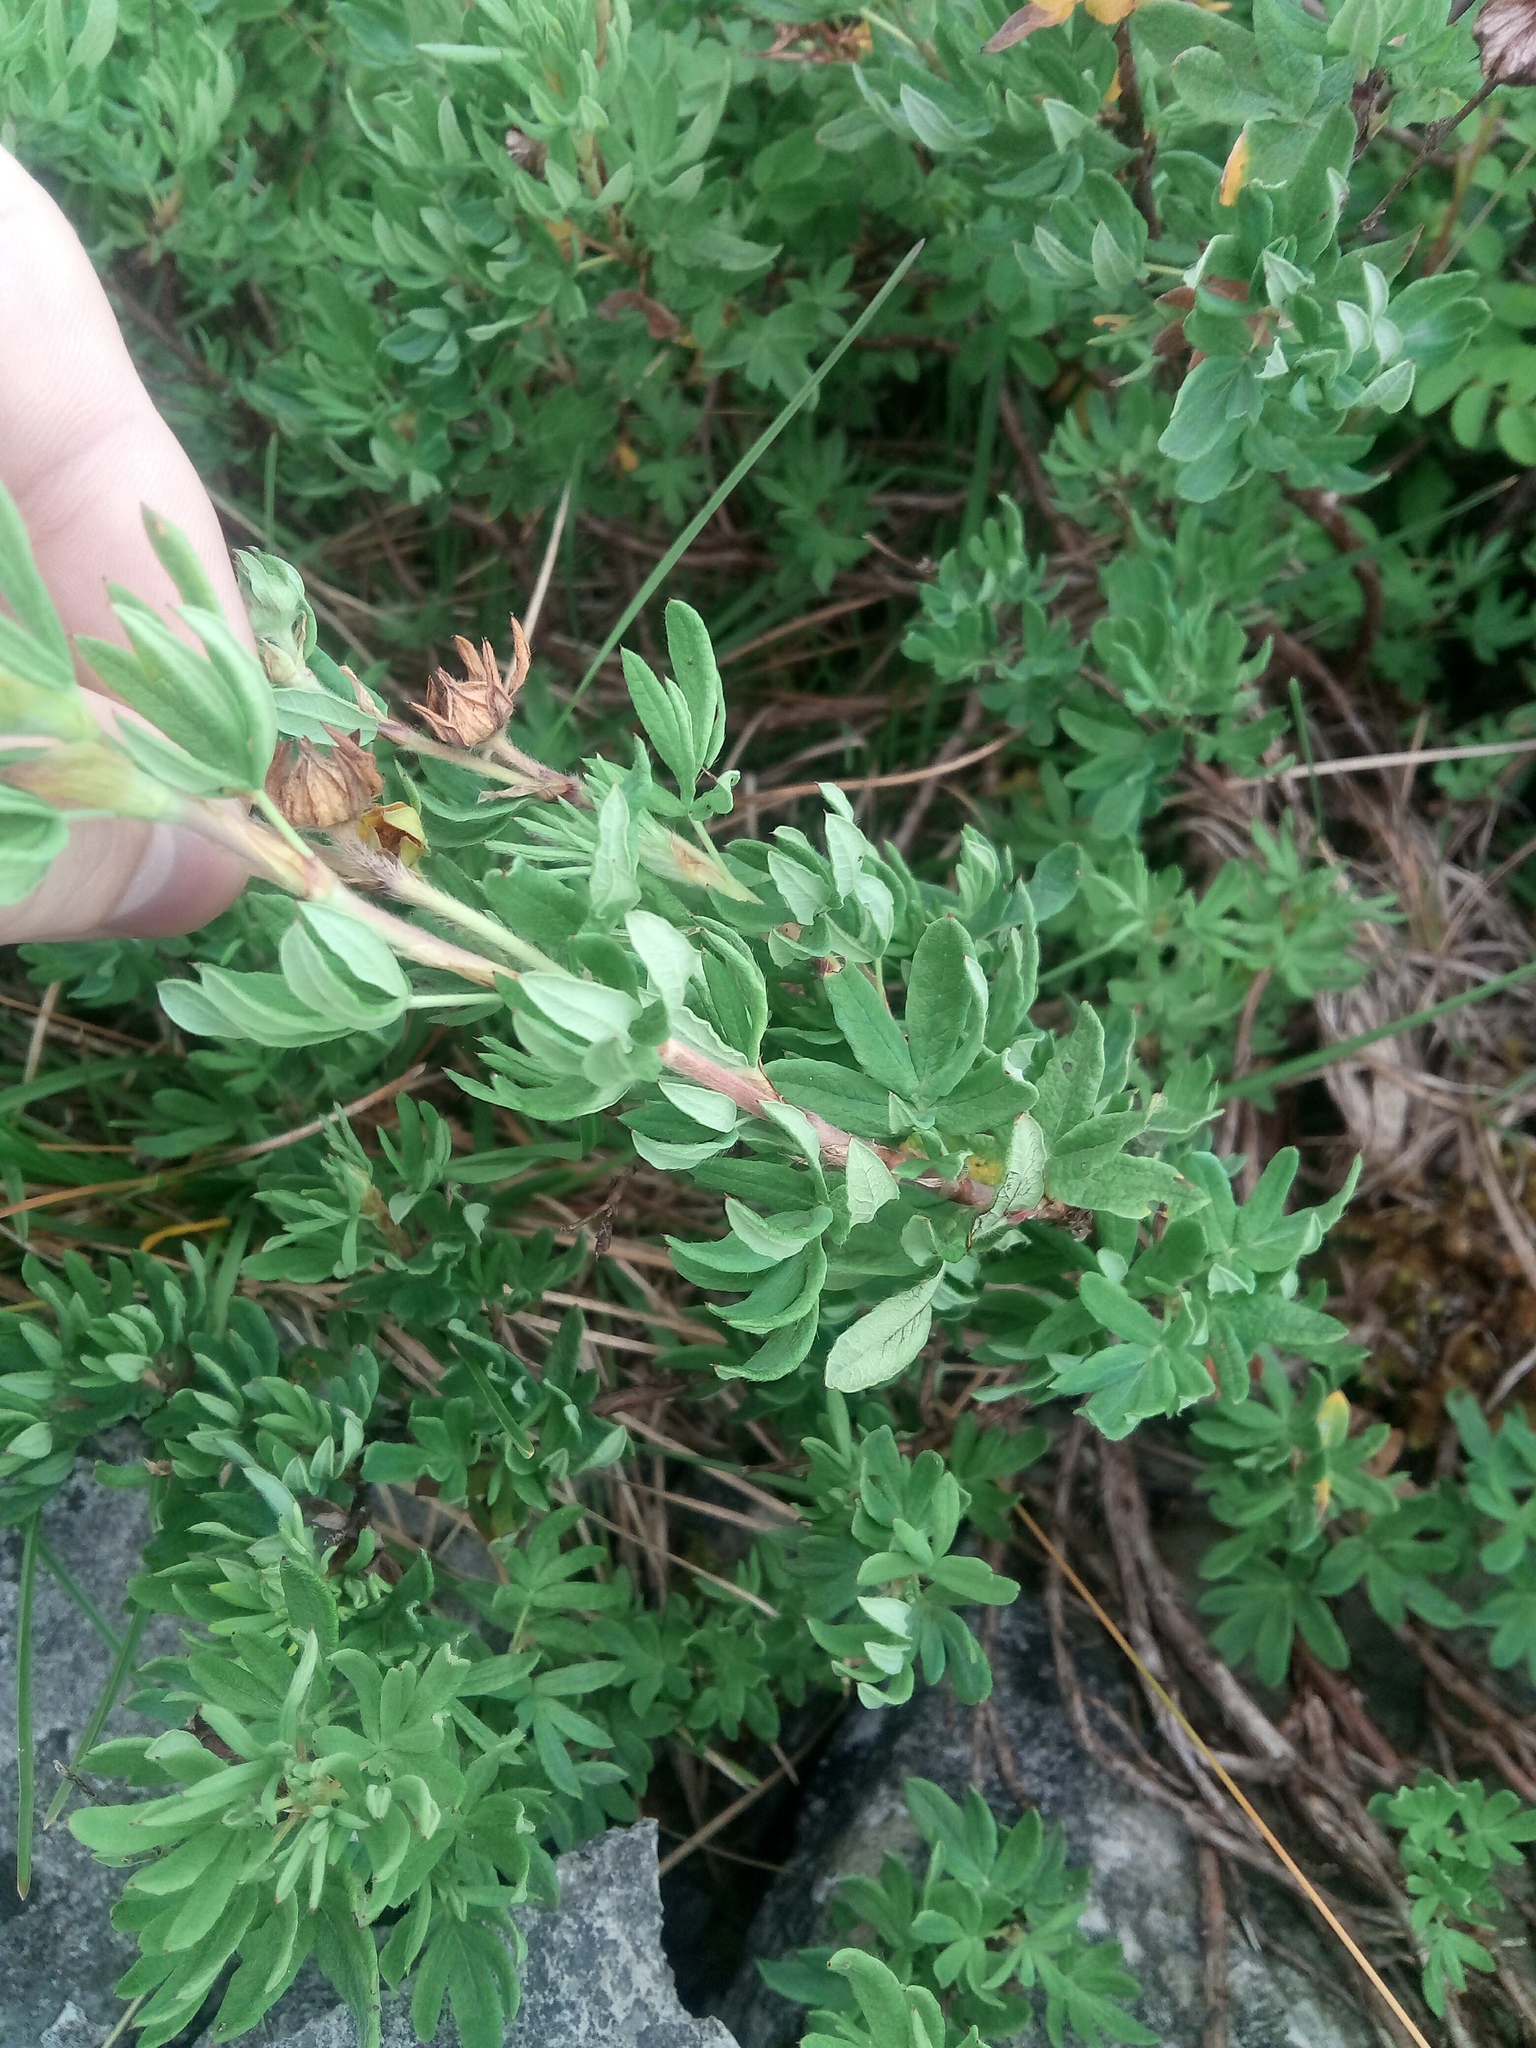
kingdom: Plantae
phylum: Tracheophyta
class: Magnoliopsida
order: Rosales
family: Rosaceae
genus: Dasiphora
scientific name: Dasiphora fruticosa
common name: Shrubby cinquefoil
